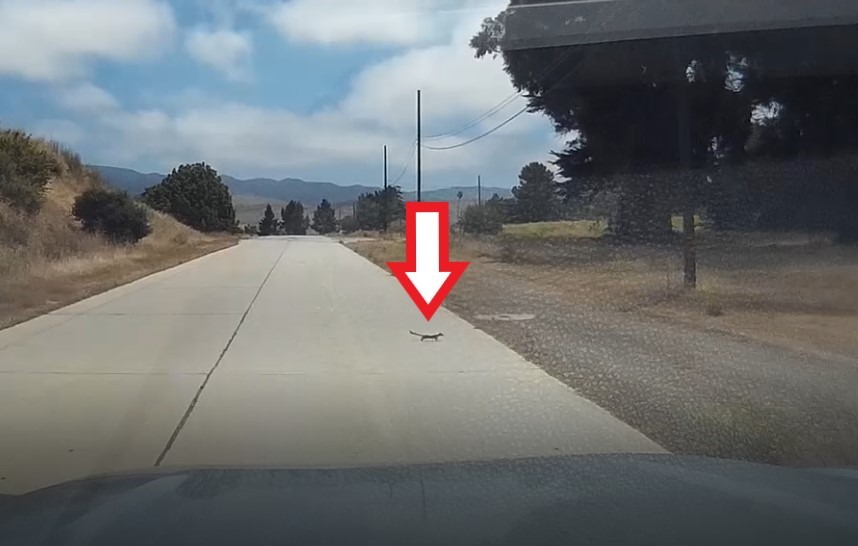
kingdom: Animalia
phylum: Chordata
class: Mammalia
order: Carnivora
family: Mustelidae
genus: Mustela
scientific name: Mustela
